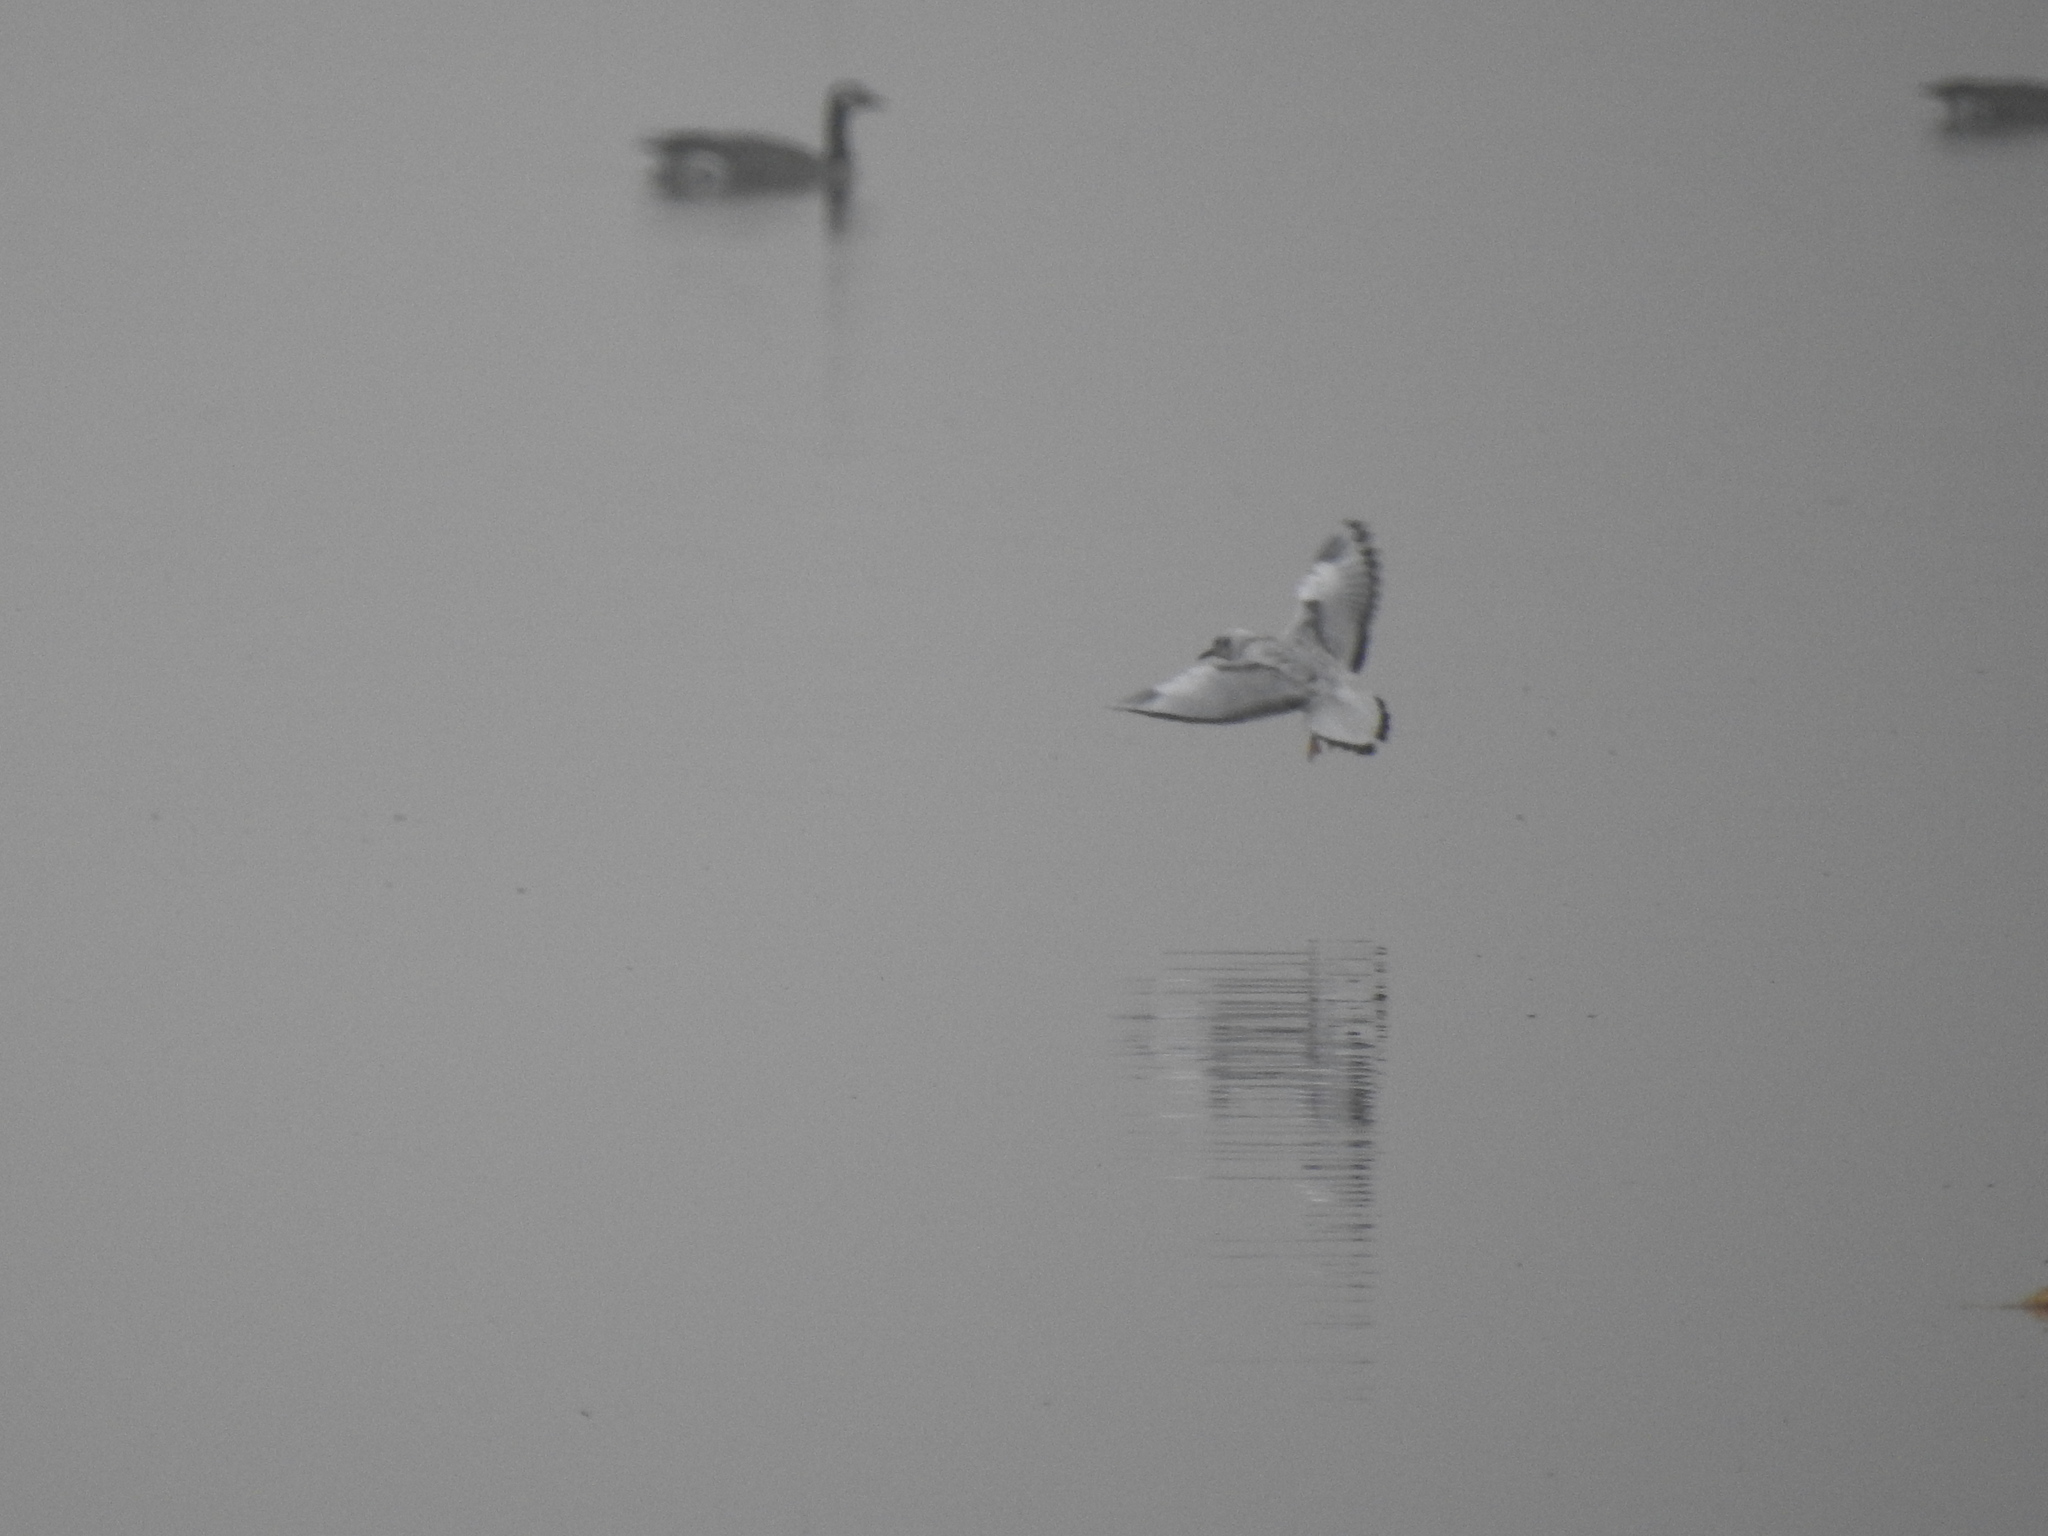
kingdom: Animalia
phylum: Chordata
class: Aves
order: Charadriiformes
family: Laridae
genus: Chroicocephalus
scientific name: Chroicocephalus philadelphia
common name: Bonaparte's gull
